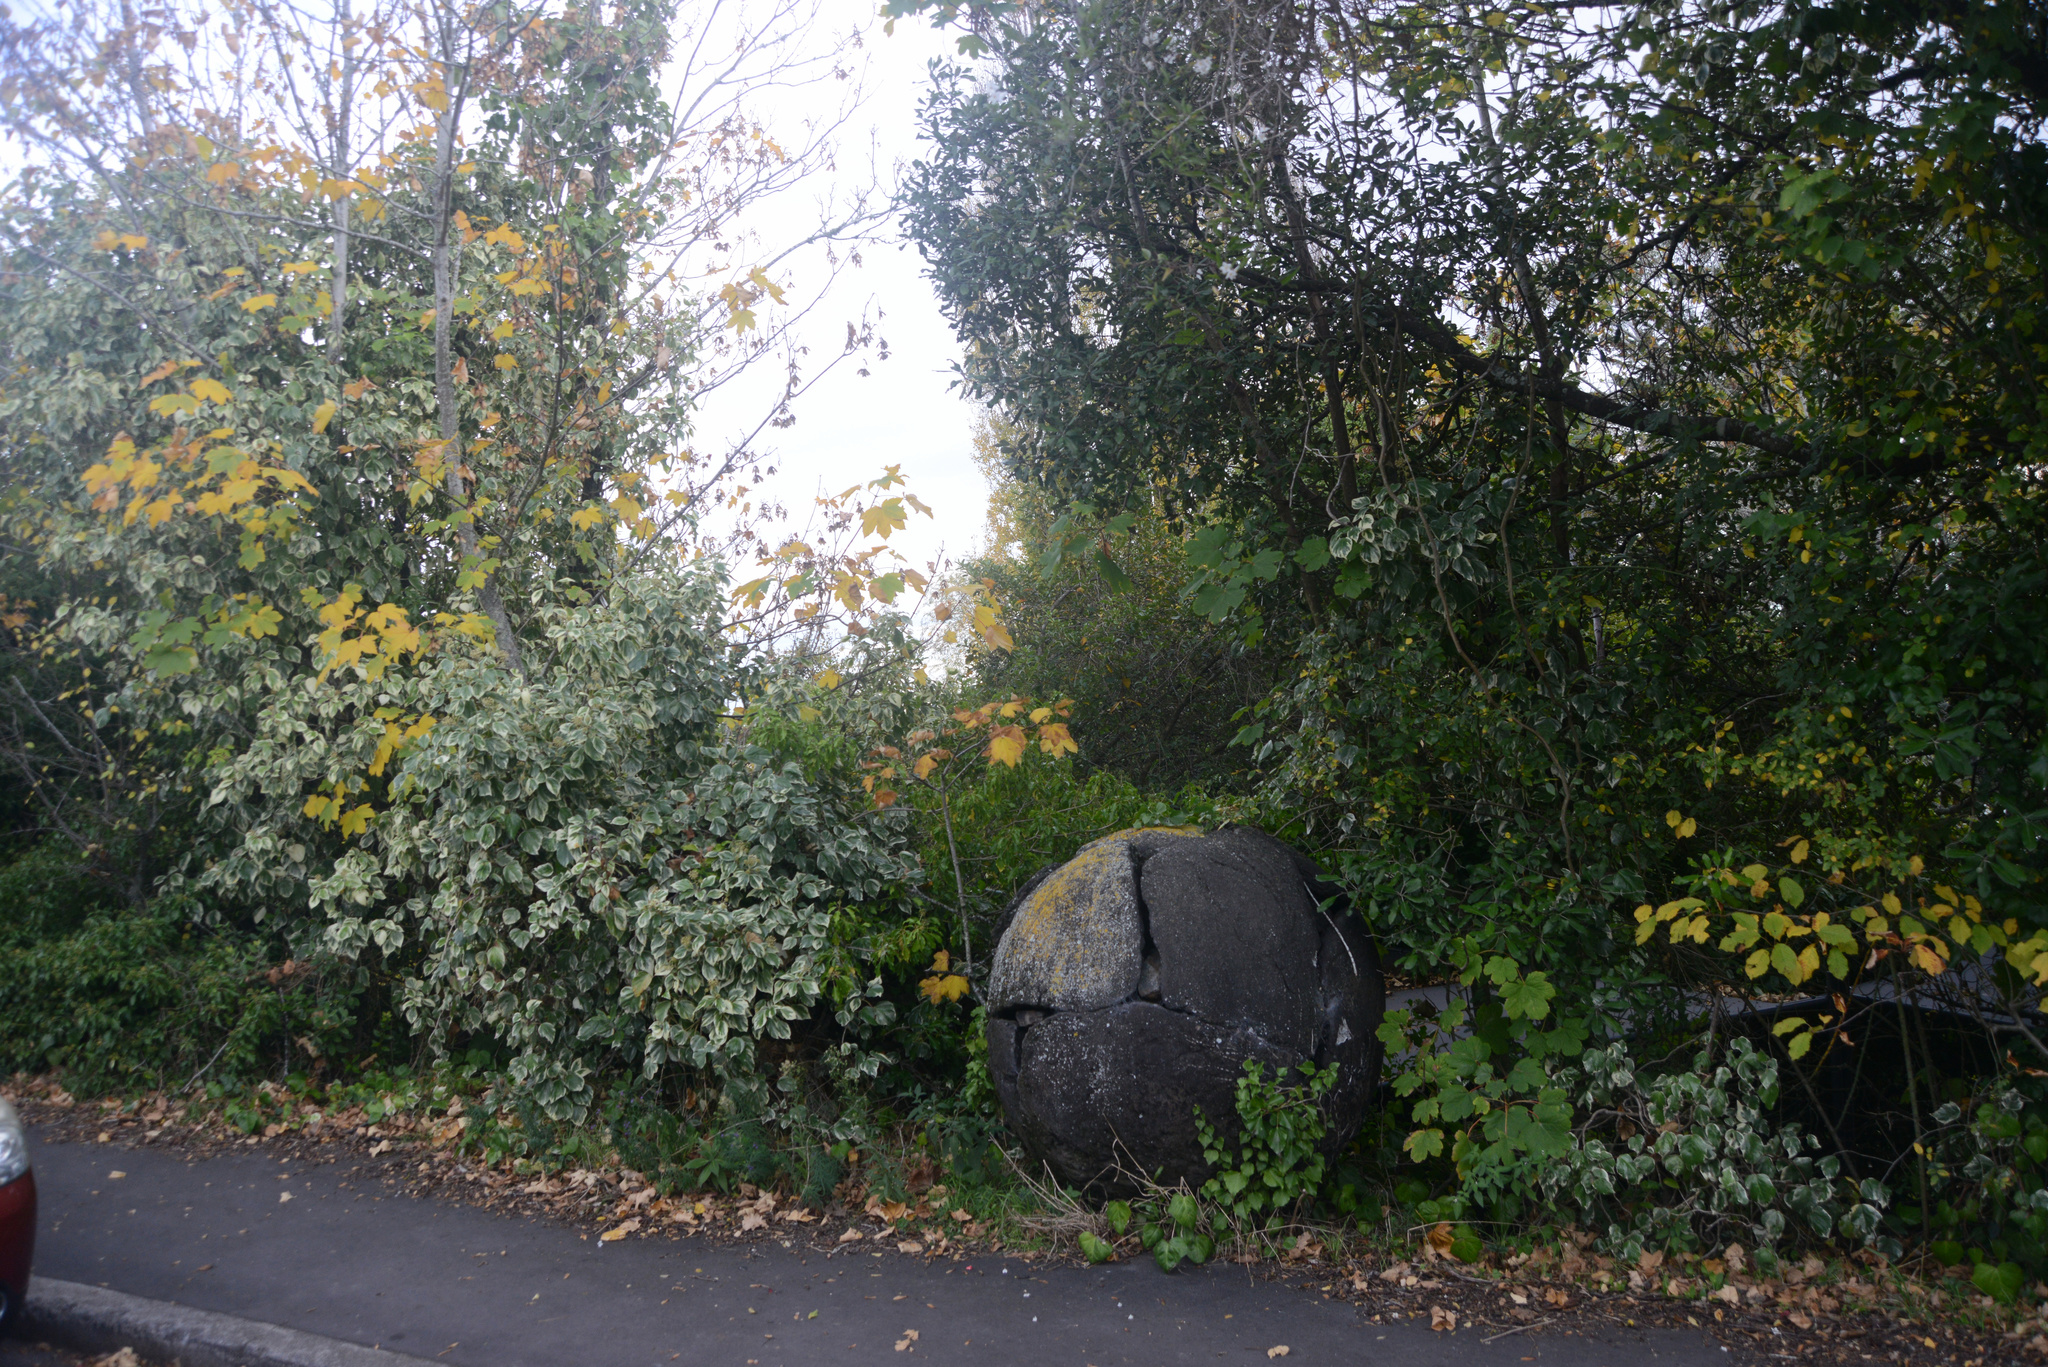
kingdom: Plantae
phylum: Tracheophyta
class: Magnoliopsida
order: Sapindales
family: Sapindaceae
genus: Acer
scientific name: Acer pseudoplatanus
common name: Sycamore
